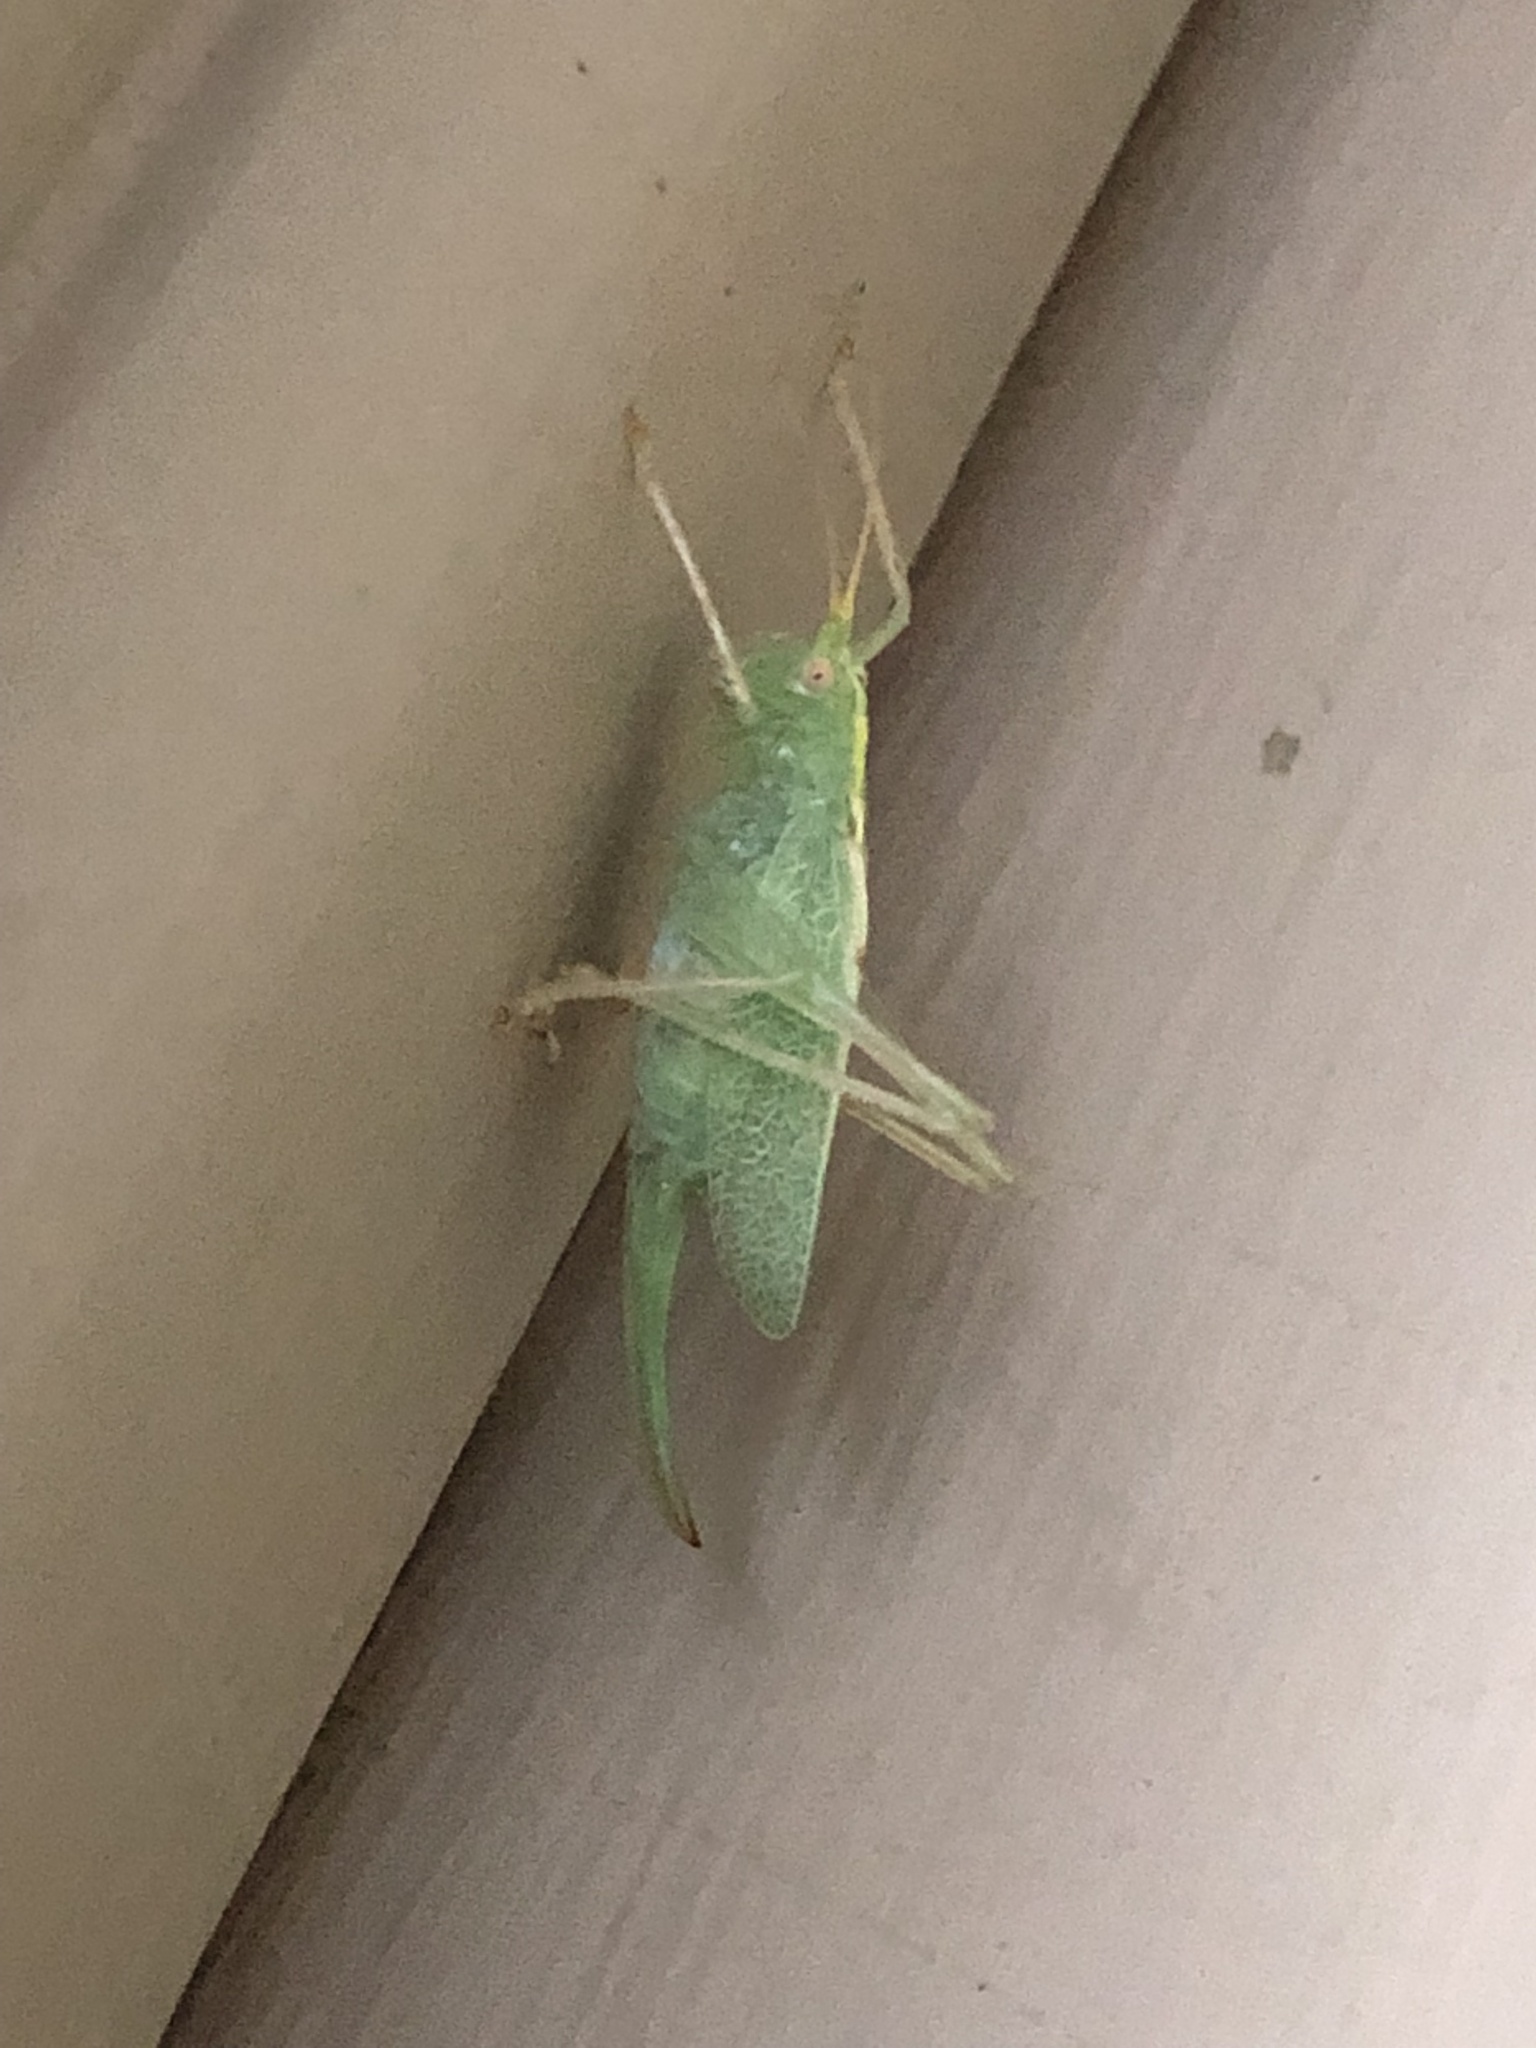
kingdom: Animalia
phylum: Arthropoda
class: Insecta
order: Orthoptera
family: Tettigoniidae
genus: Meconema
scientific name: Meconema thalassinum
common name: Oak bush-cricket
